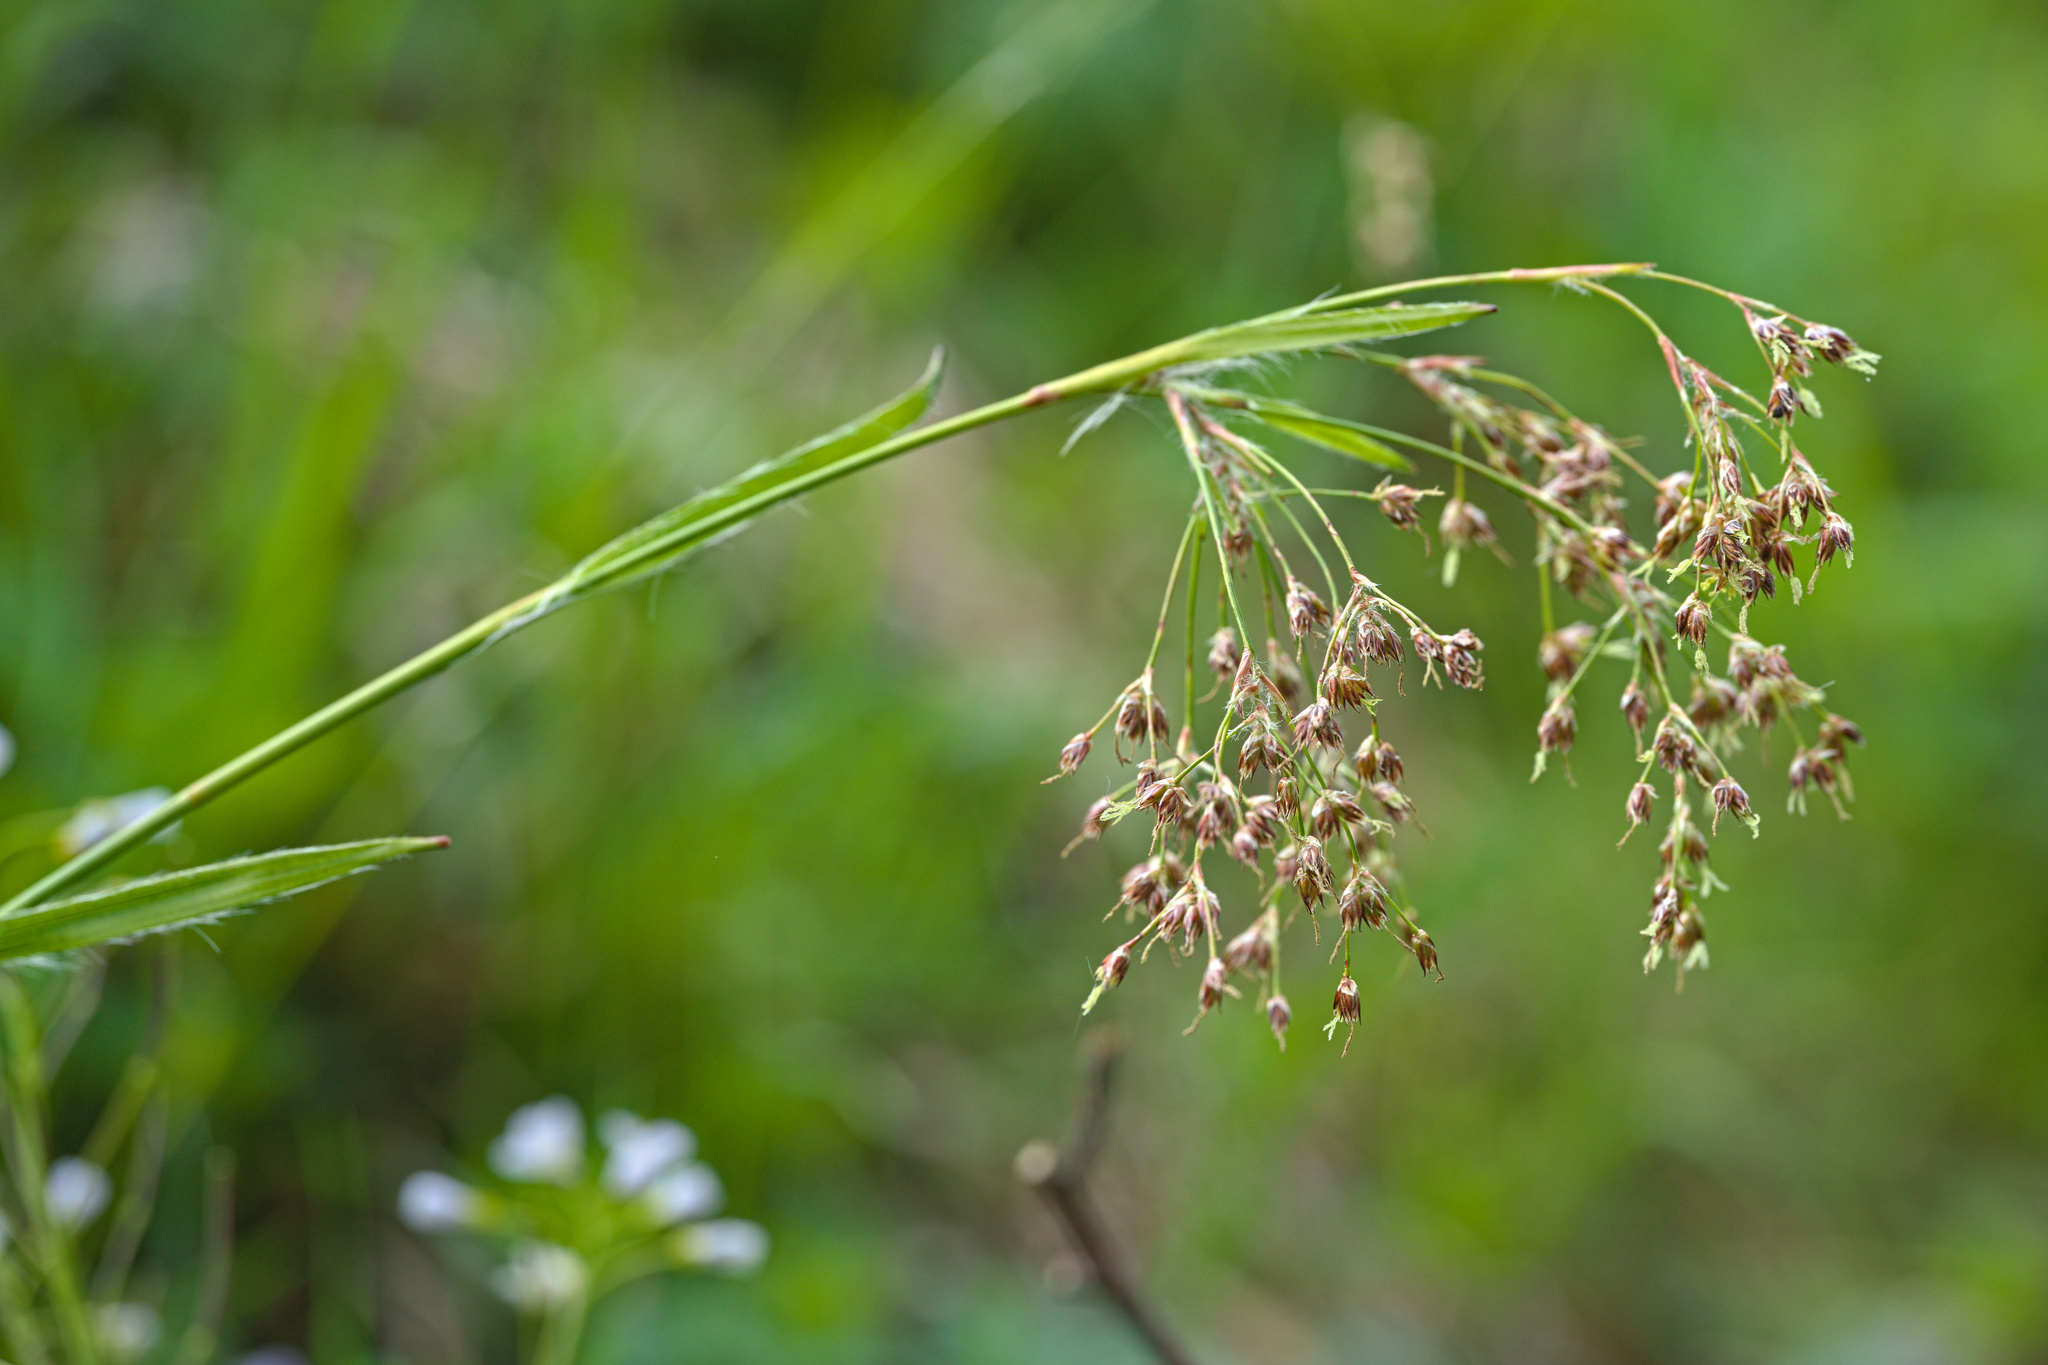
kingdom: Plantae
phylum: Tracheophyta
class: Liliopsida
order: Poales
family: Juncaceae
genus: Luzula
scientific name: Luzula sylvatica
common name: Great wood-rush
